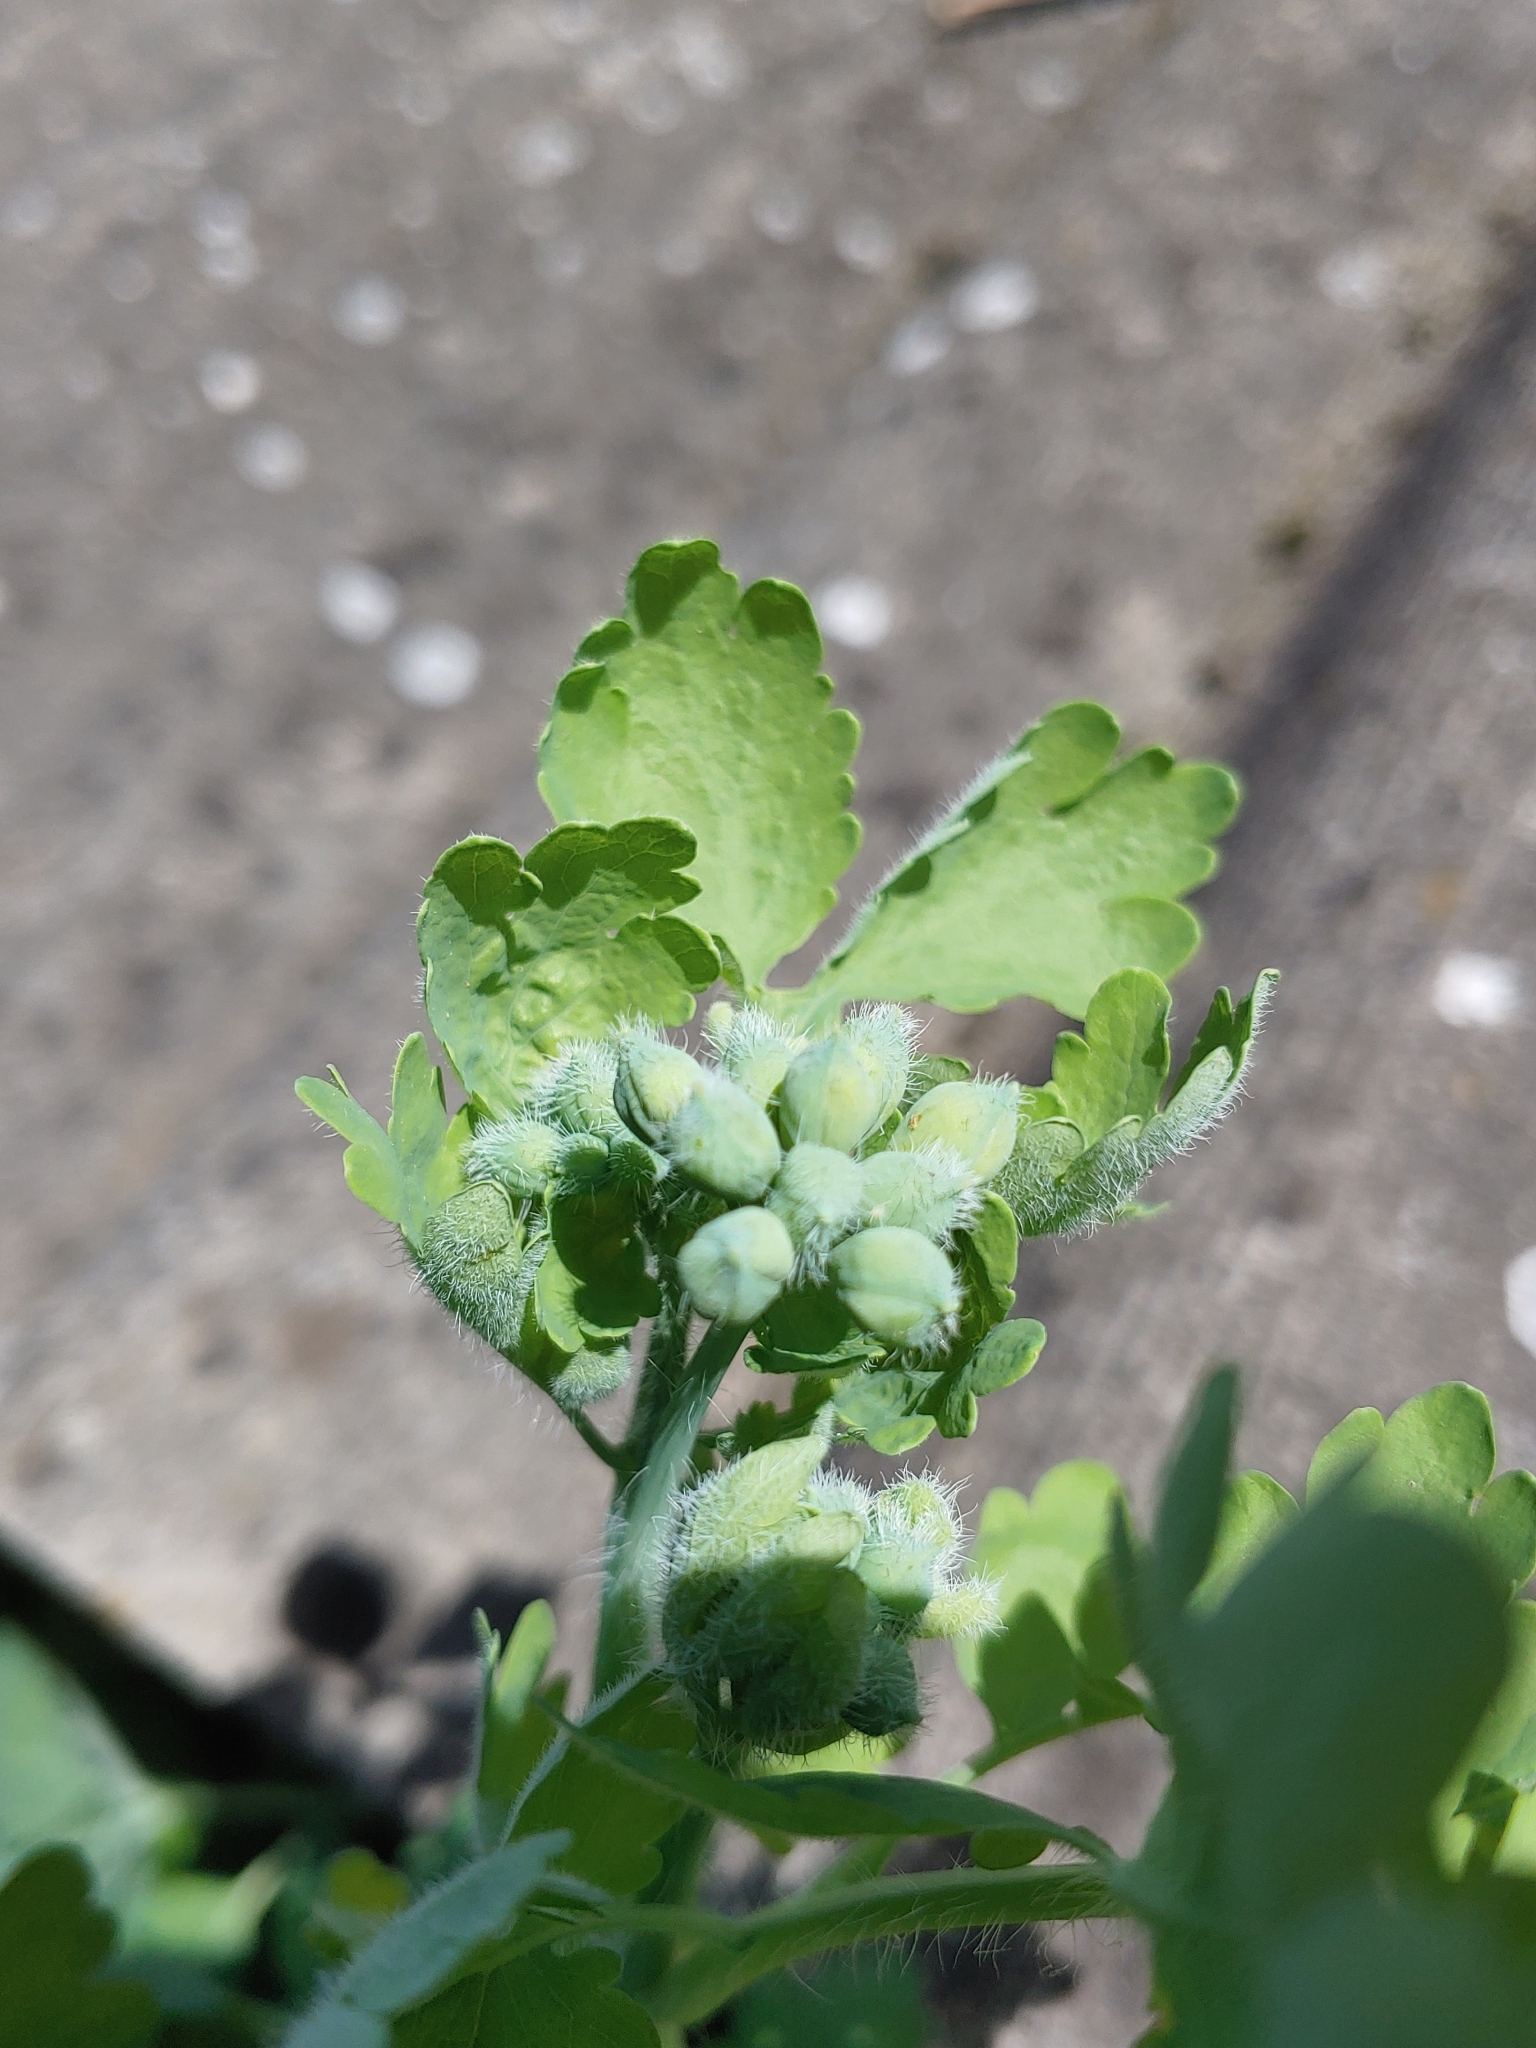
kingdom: Plantae
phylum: Tracheophyta
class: Magnoliopsida
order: Ranunculales
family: Papaveraceae
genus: Chelidonium
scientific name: Chelidonium majus
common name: Greater celandine
